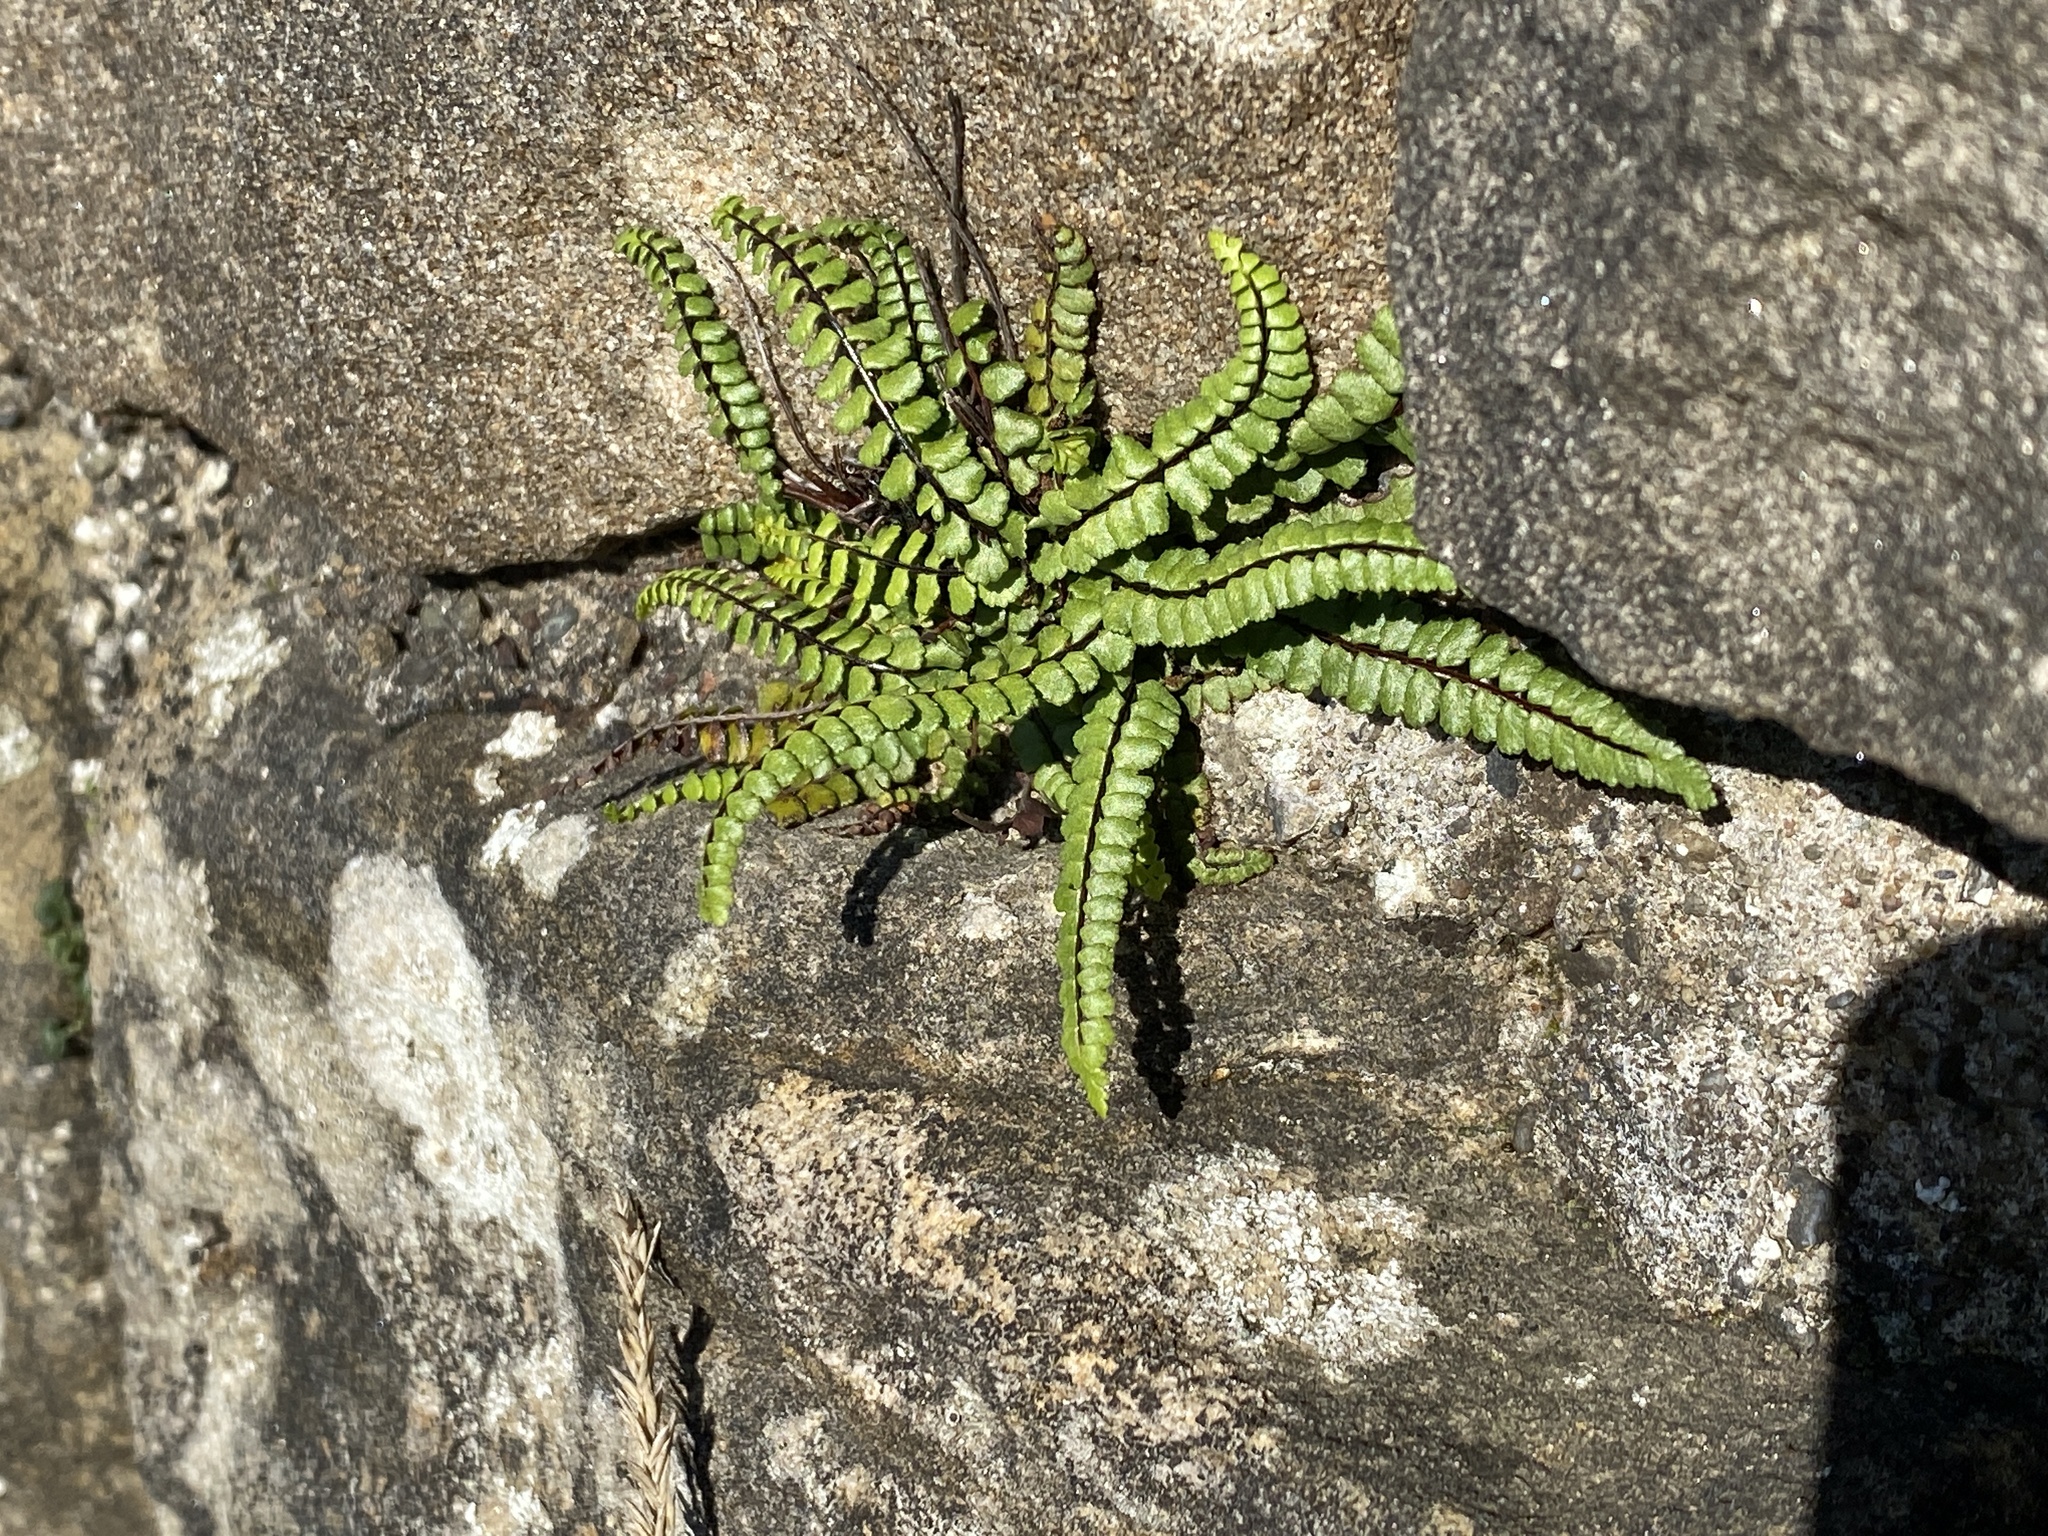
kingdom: Plantae
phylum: Tracheophyta
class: Polypodiopsida
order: Polypodiales
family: Aspleniaceae
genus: Asplenium
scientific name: Asplenium trichomanes
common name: Maidenhair spleenwort
